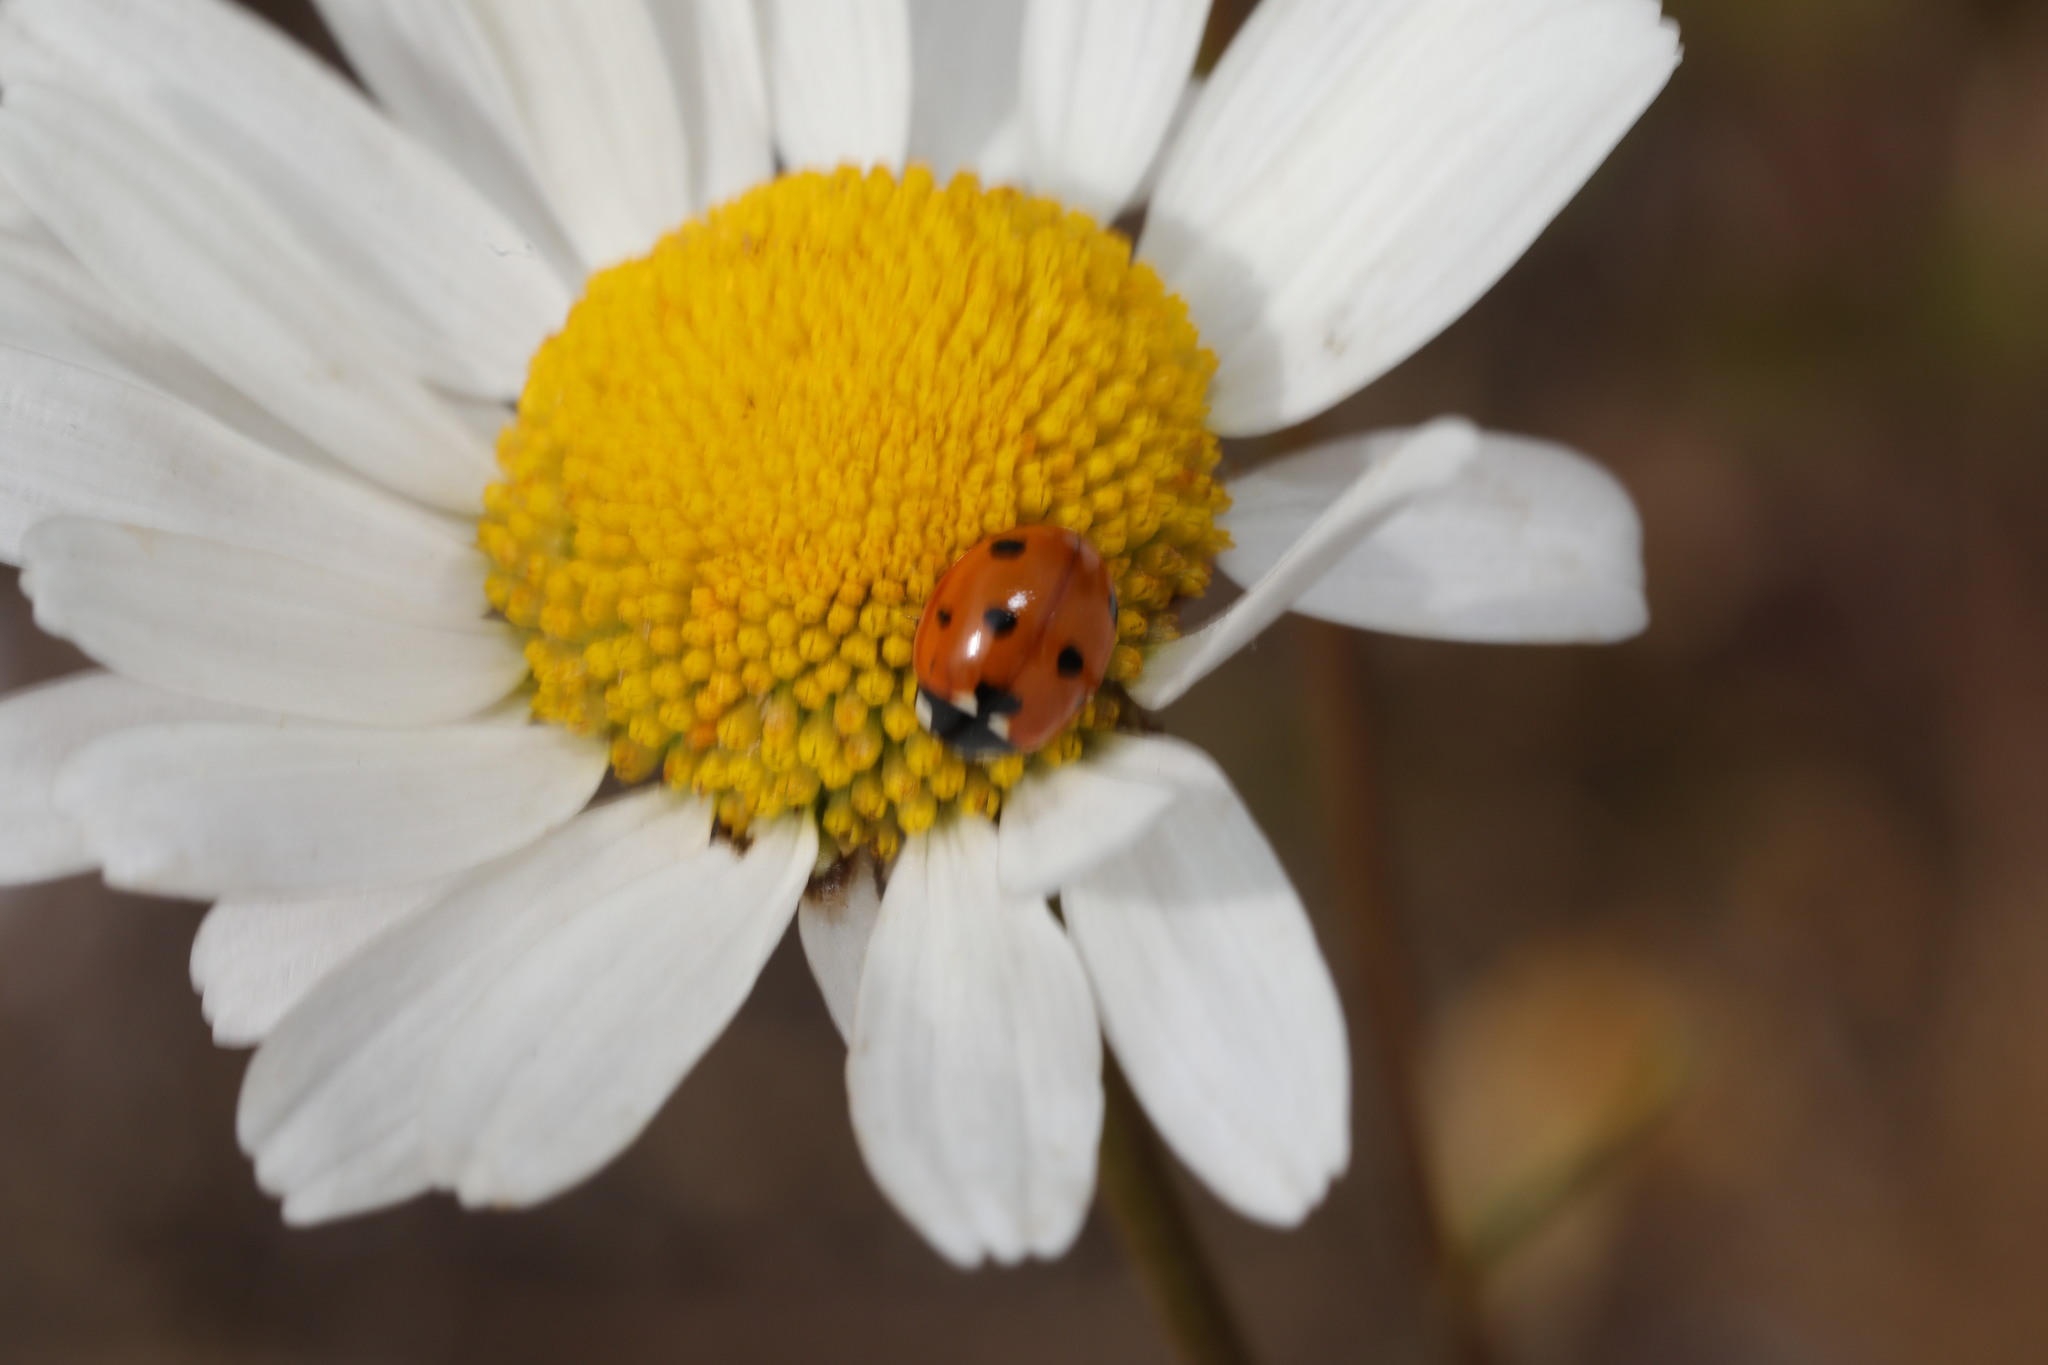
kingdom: Animalia
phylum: Arthropoda
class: Insecta
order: Coleoptera
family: Coccinellidae
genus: Coccinella
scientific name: Coccinella septempunctata
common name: Sevenspotted lady beetle
